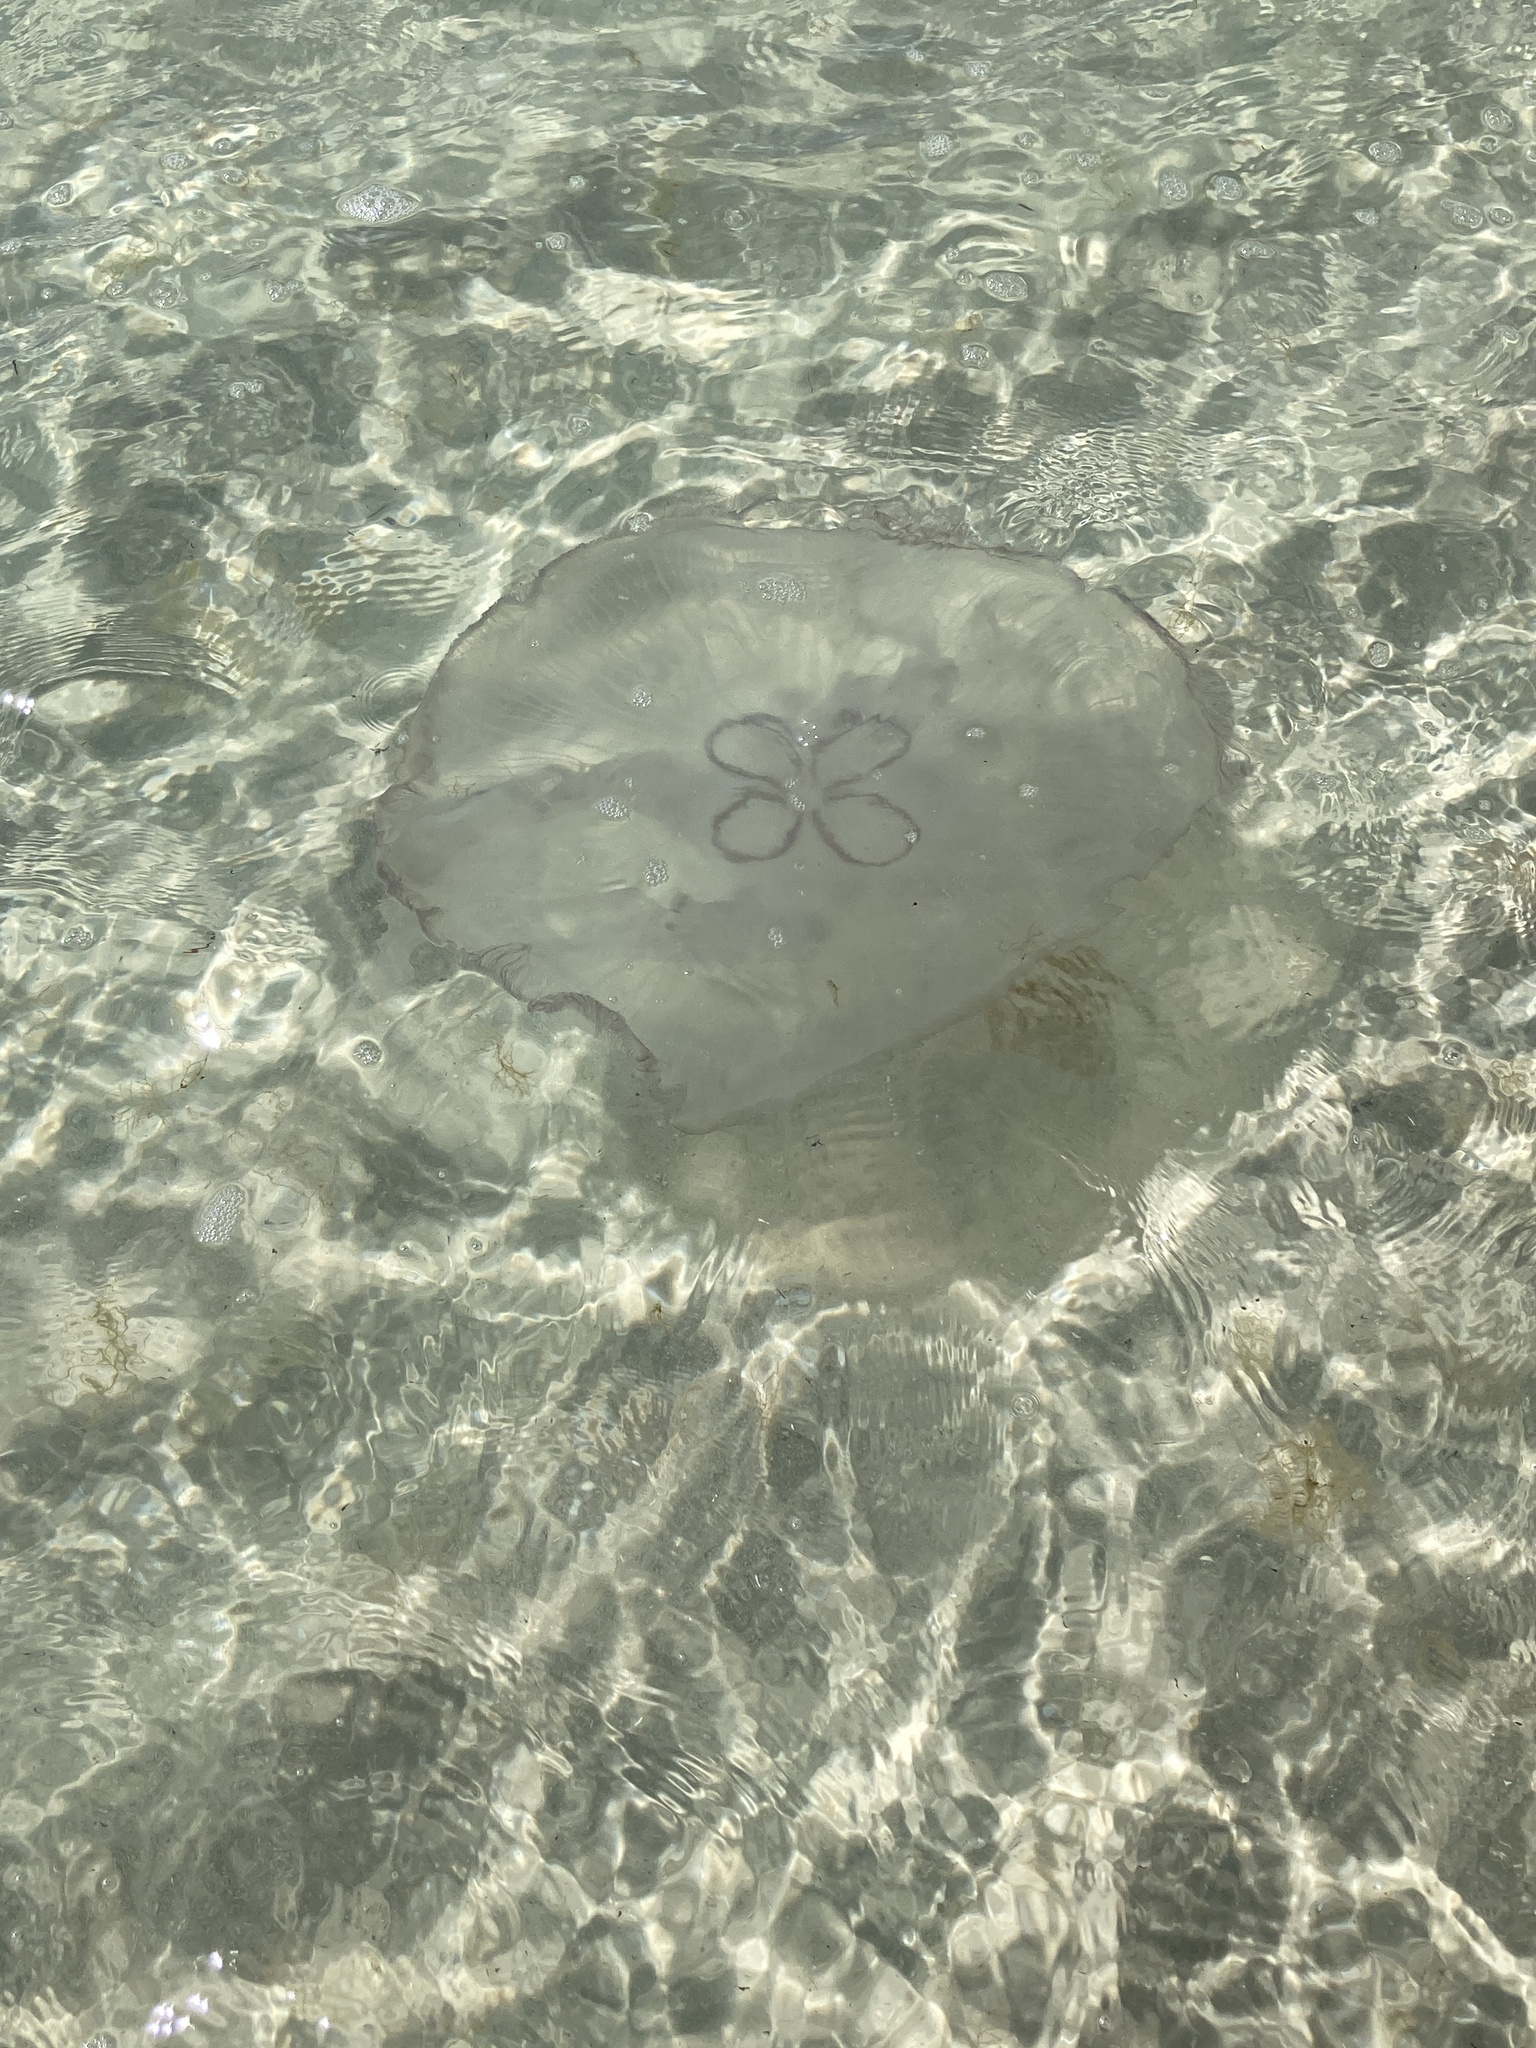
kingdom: Animalia
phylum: Cnidaria
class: Scyphozoa
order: Semaeostomeae
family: Ulmaridae
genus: Aurelia
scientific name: Aurelia marginalis
